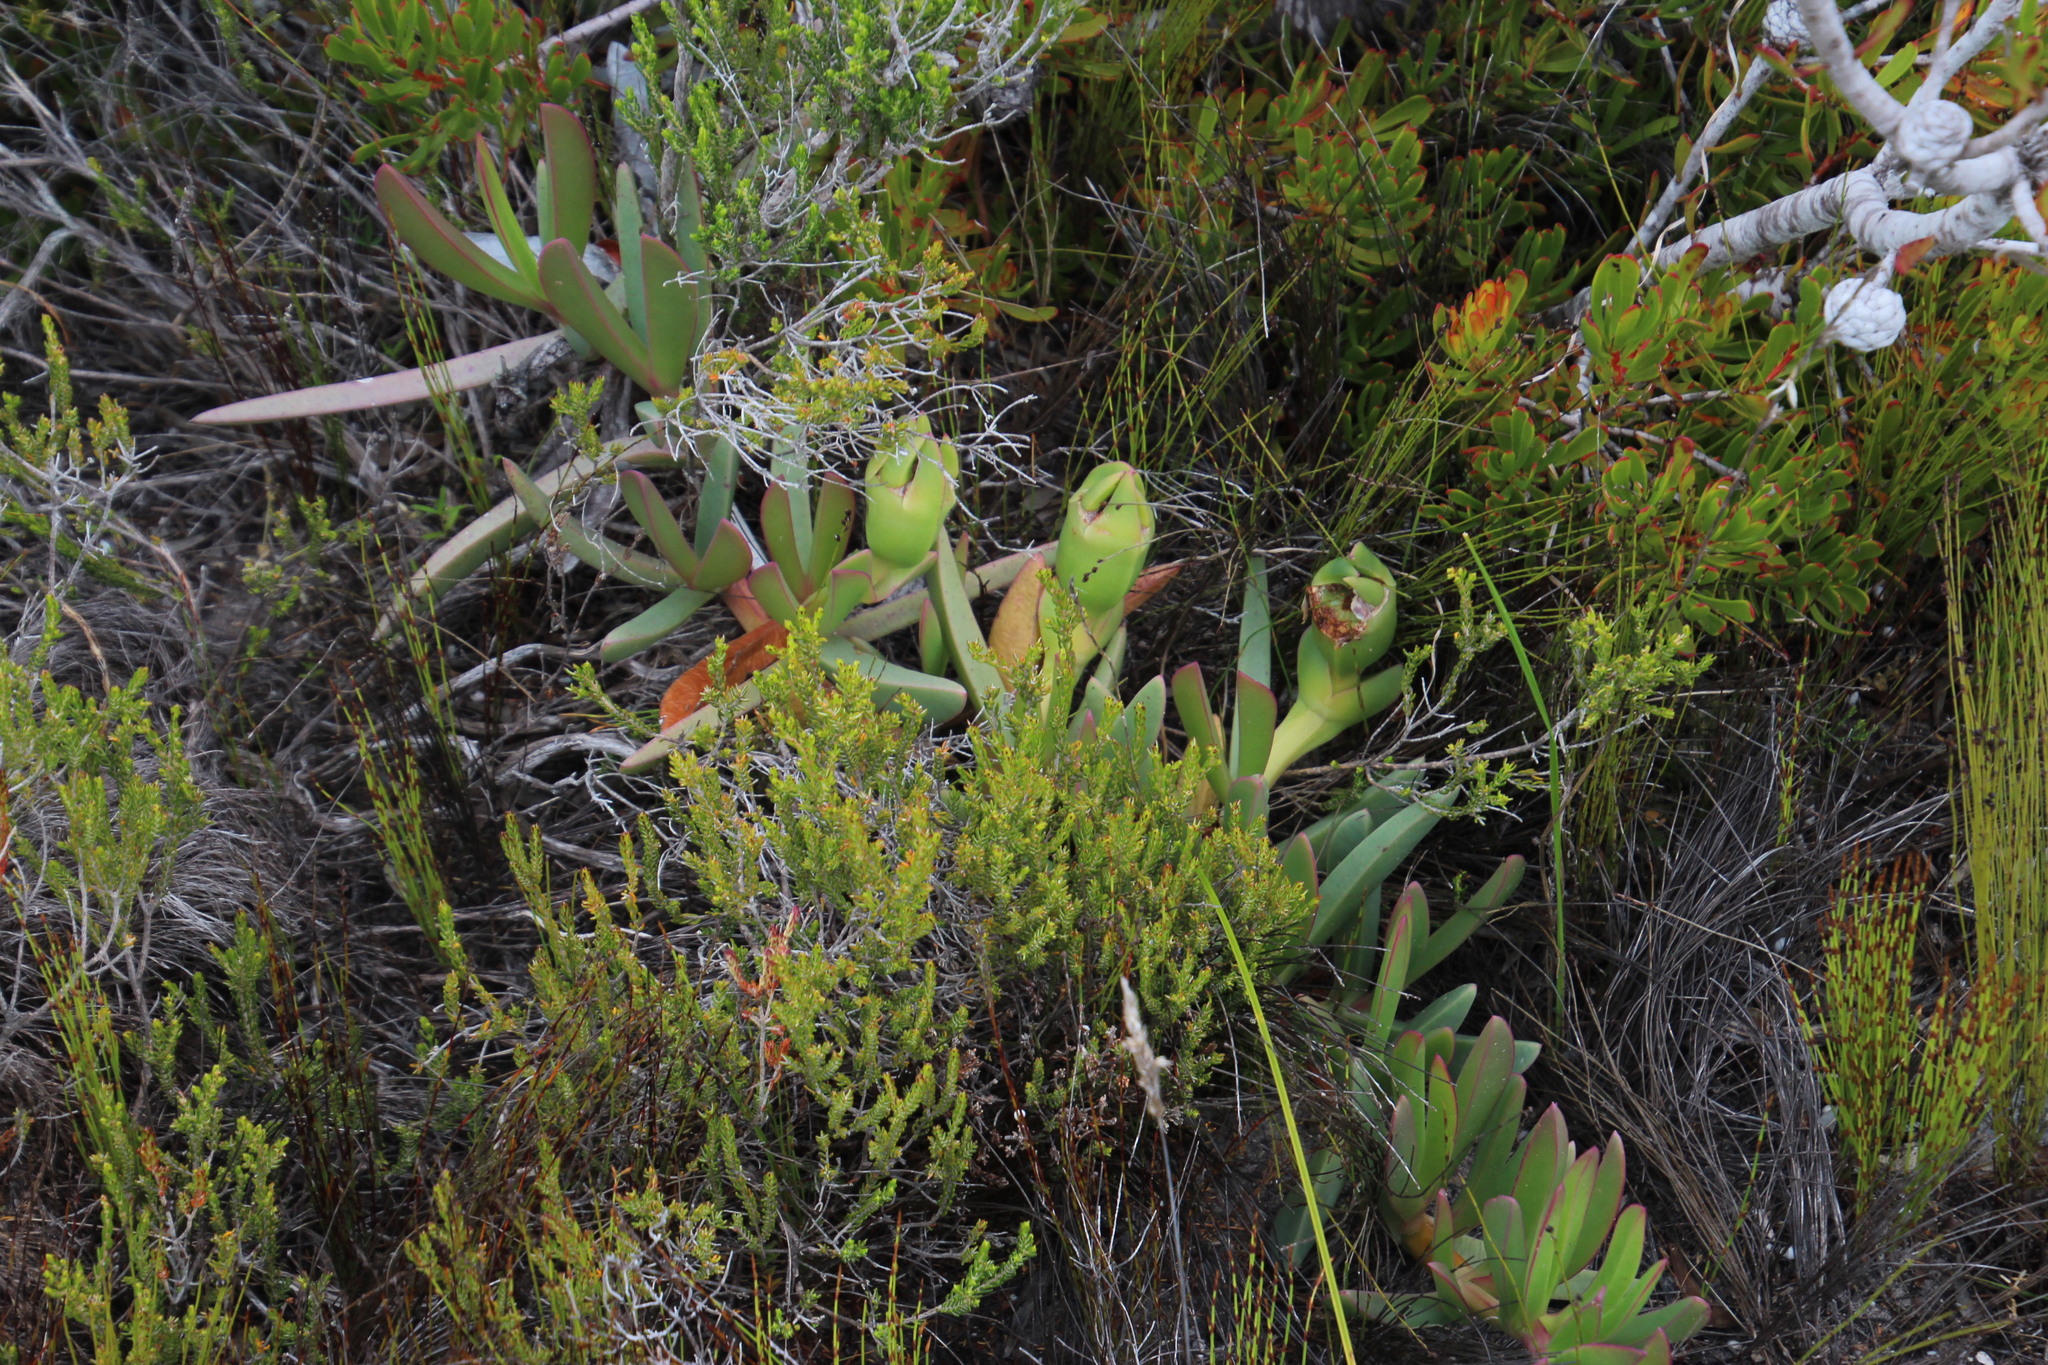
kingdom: Plantae
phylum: Tracheophyta
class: Magnoliopsida
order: Caryophyllales
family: Aizoaceae
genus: Carpobrotus
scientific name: Carpobrotus acinaciformis
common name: Sally-my-handsome
